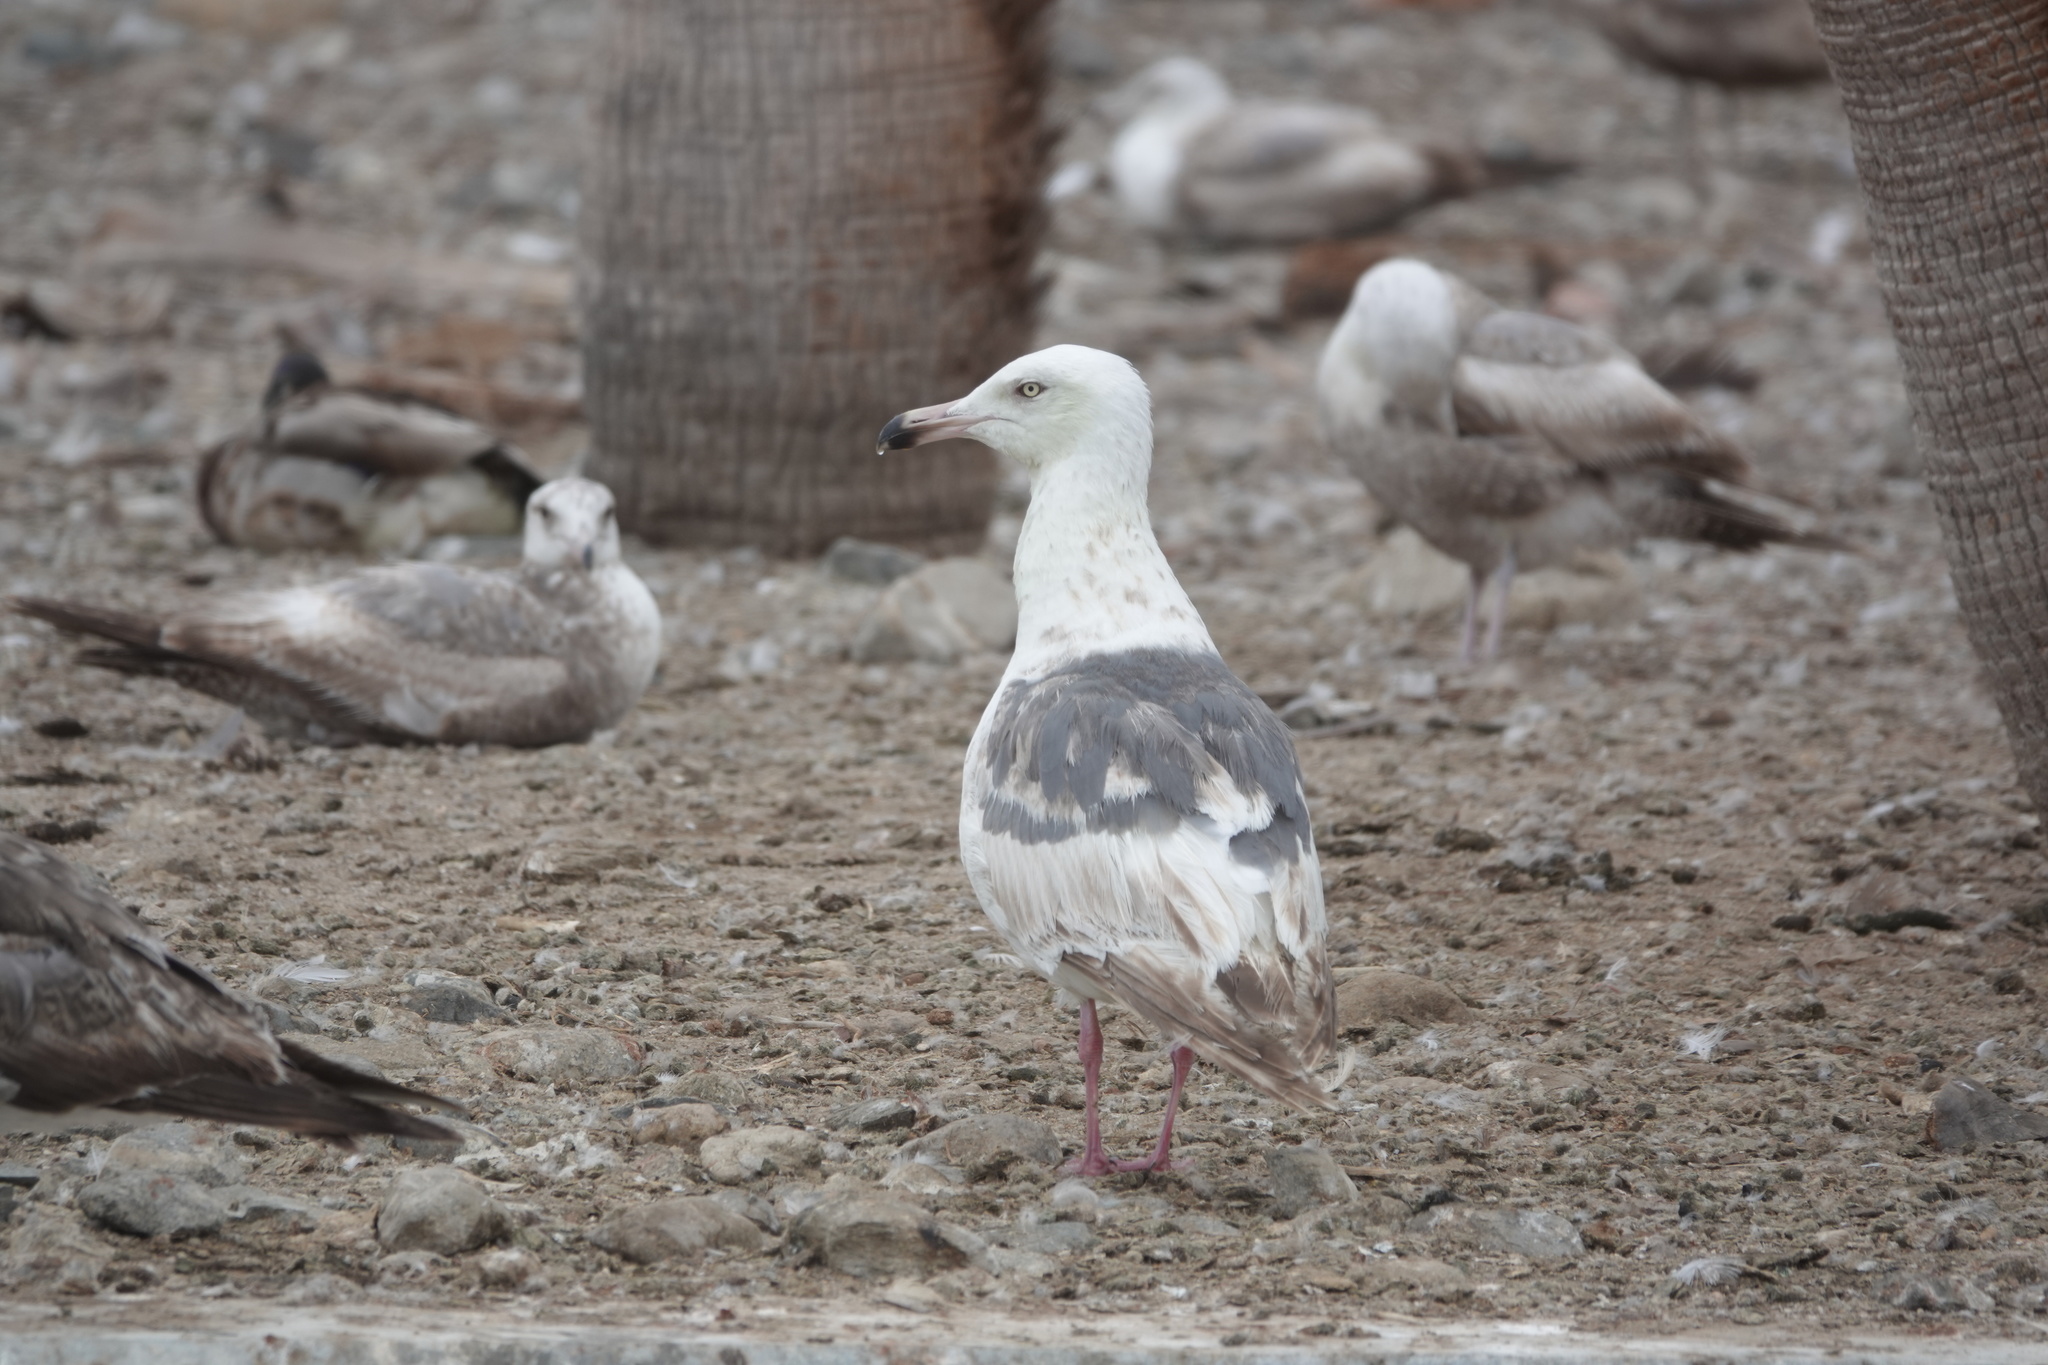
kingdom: Animalia
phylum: Chordata
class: Aves
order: Charadriiformes
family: Laridae
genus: Larus
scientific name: Larus schistisagus
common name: Slaty-backed gull
